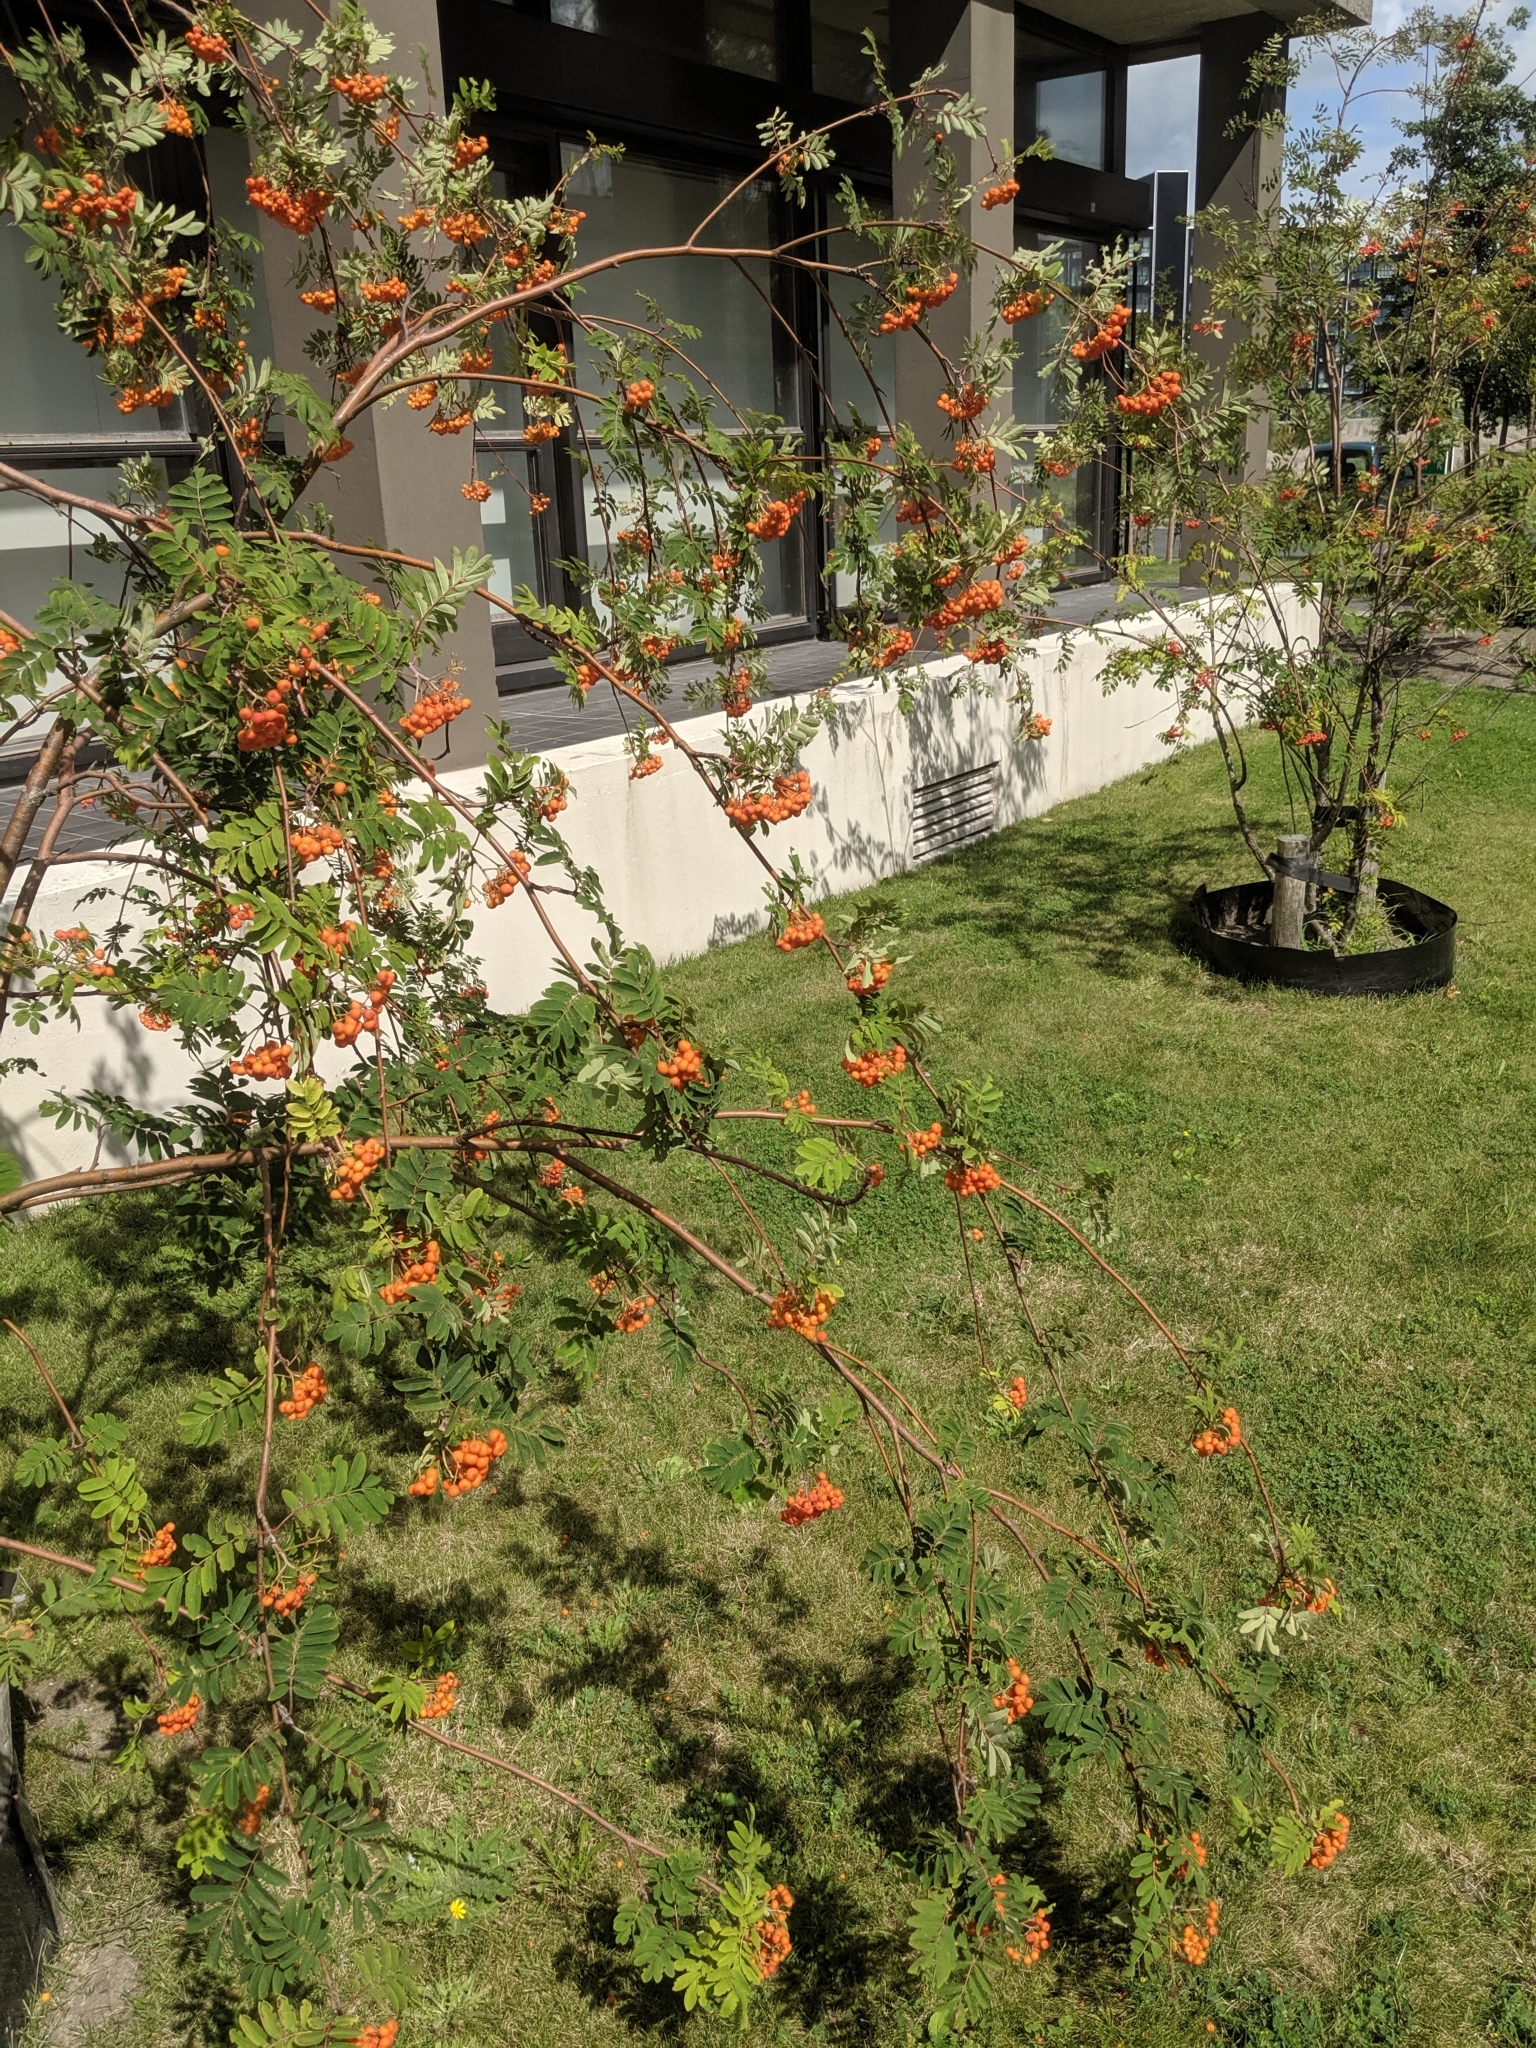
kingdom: Plantae
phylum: Tracheophyta
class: Magnoliopsida
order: Rosales
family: Rosaceae
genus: Sorbus
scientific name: Sorbus aucuparia
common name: Rowan
